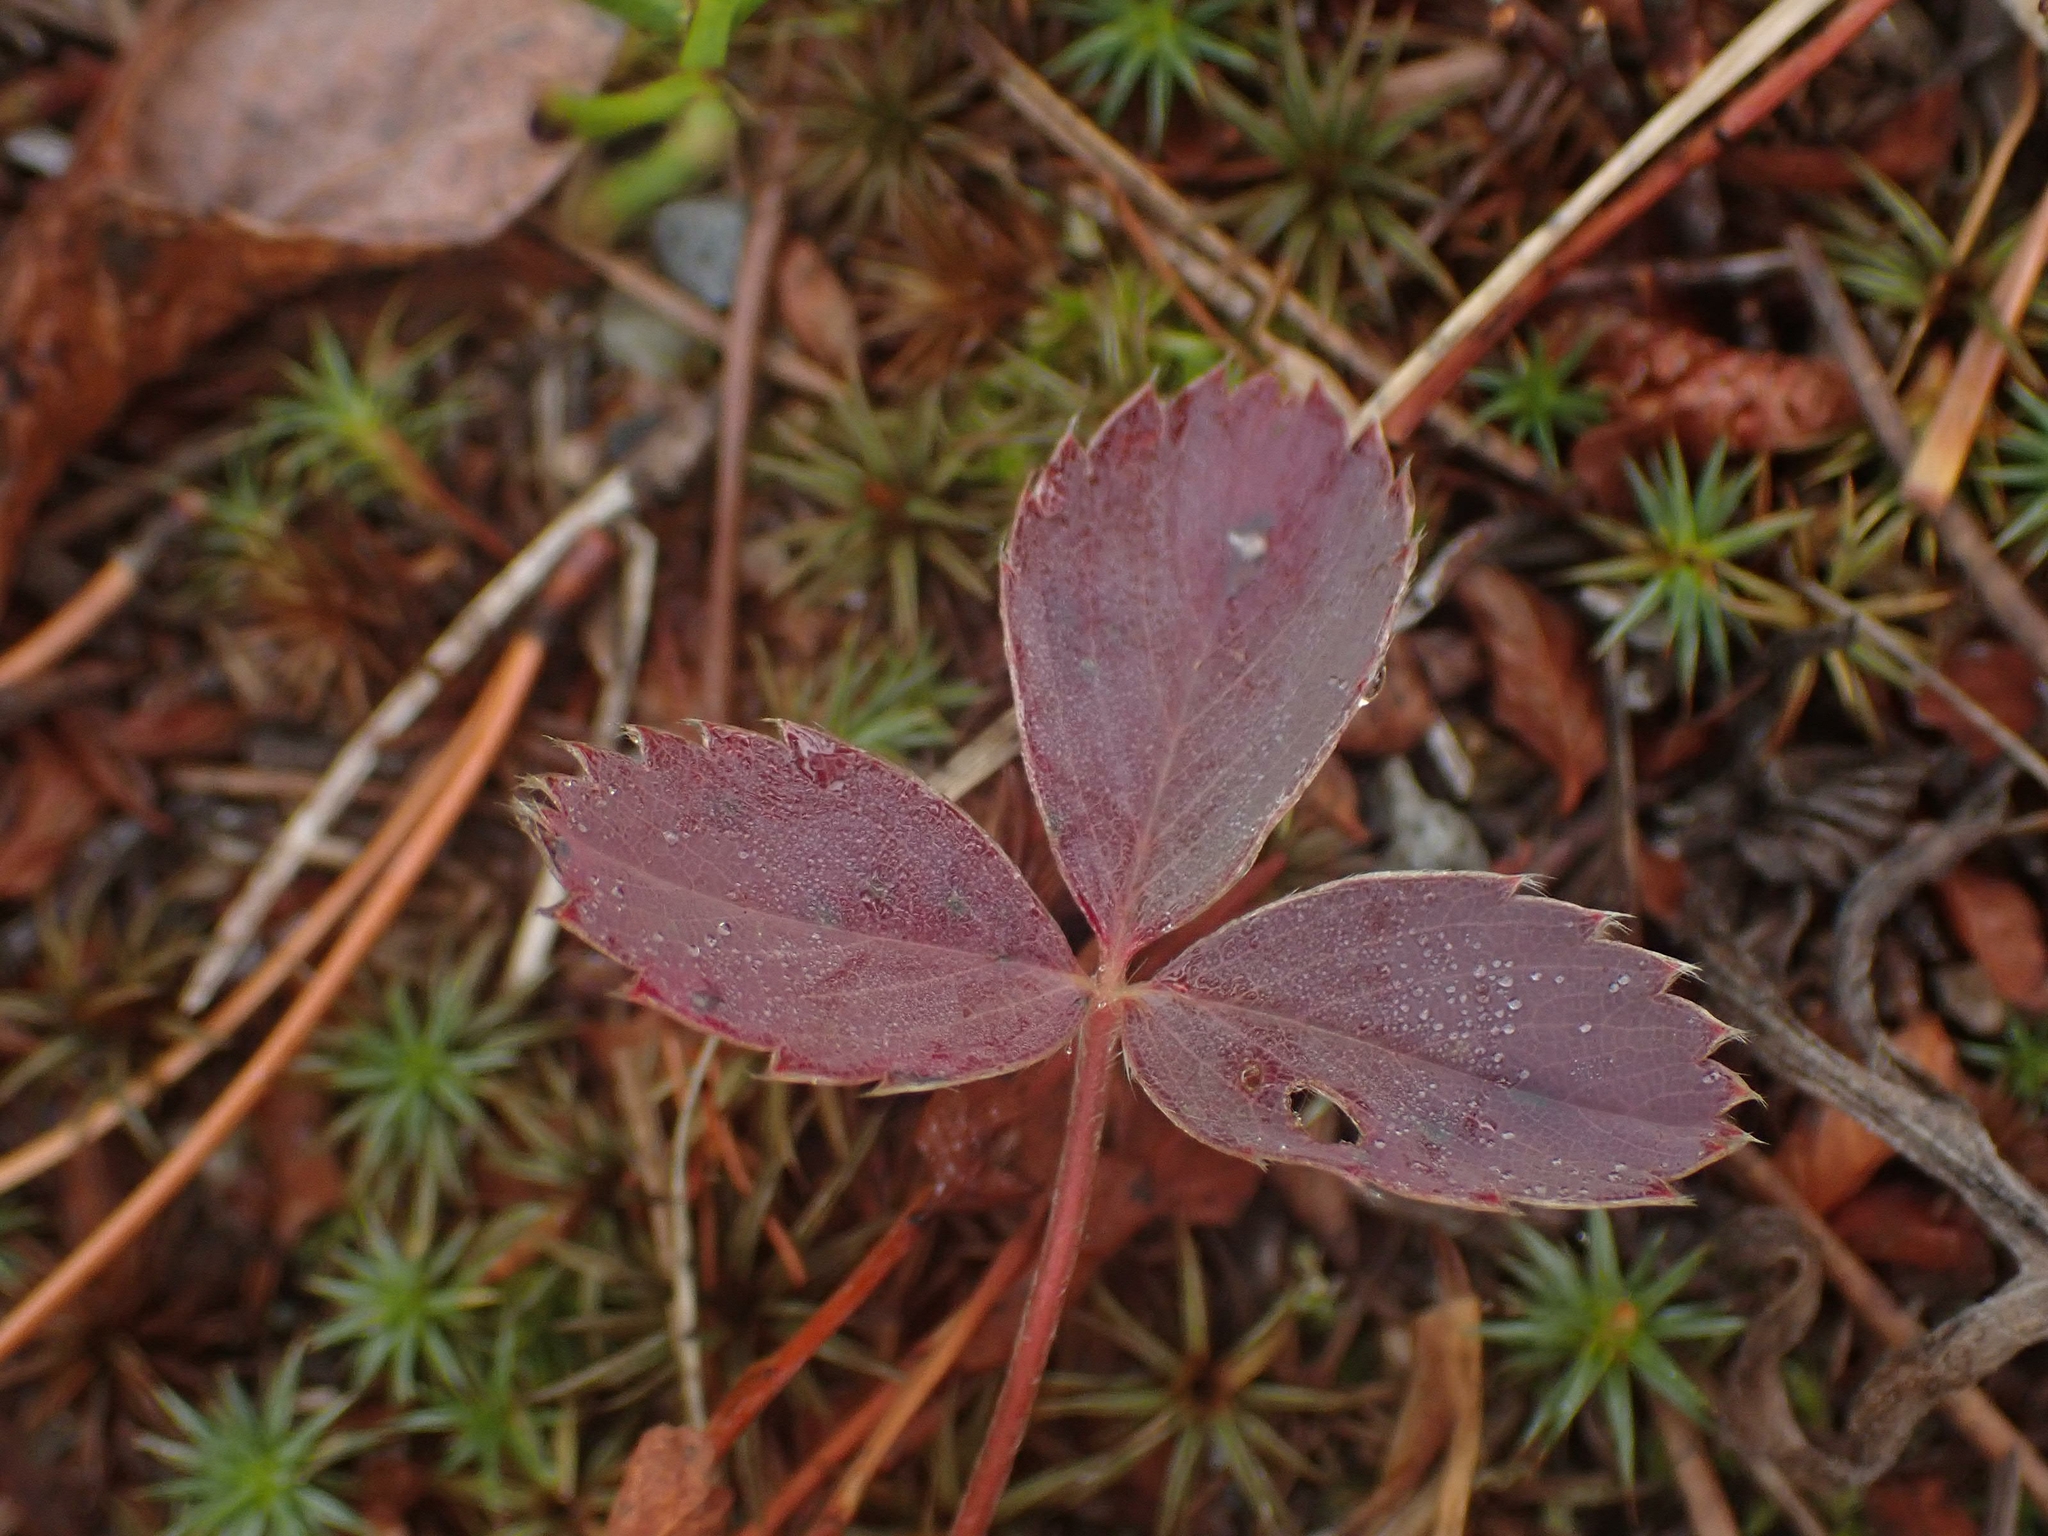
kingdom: Plantae
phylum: Tracheophyta
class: Magnoliopsida
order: Rosales
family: Rosaceae
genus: Fragaria
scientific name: Fragaria virginiana
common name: Thickleaved wild strawberry
